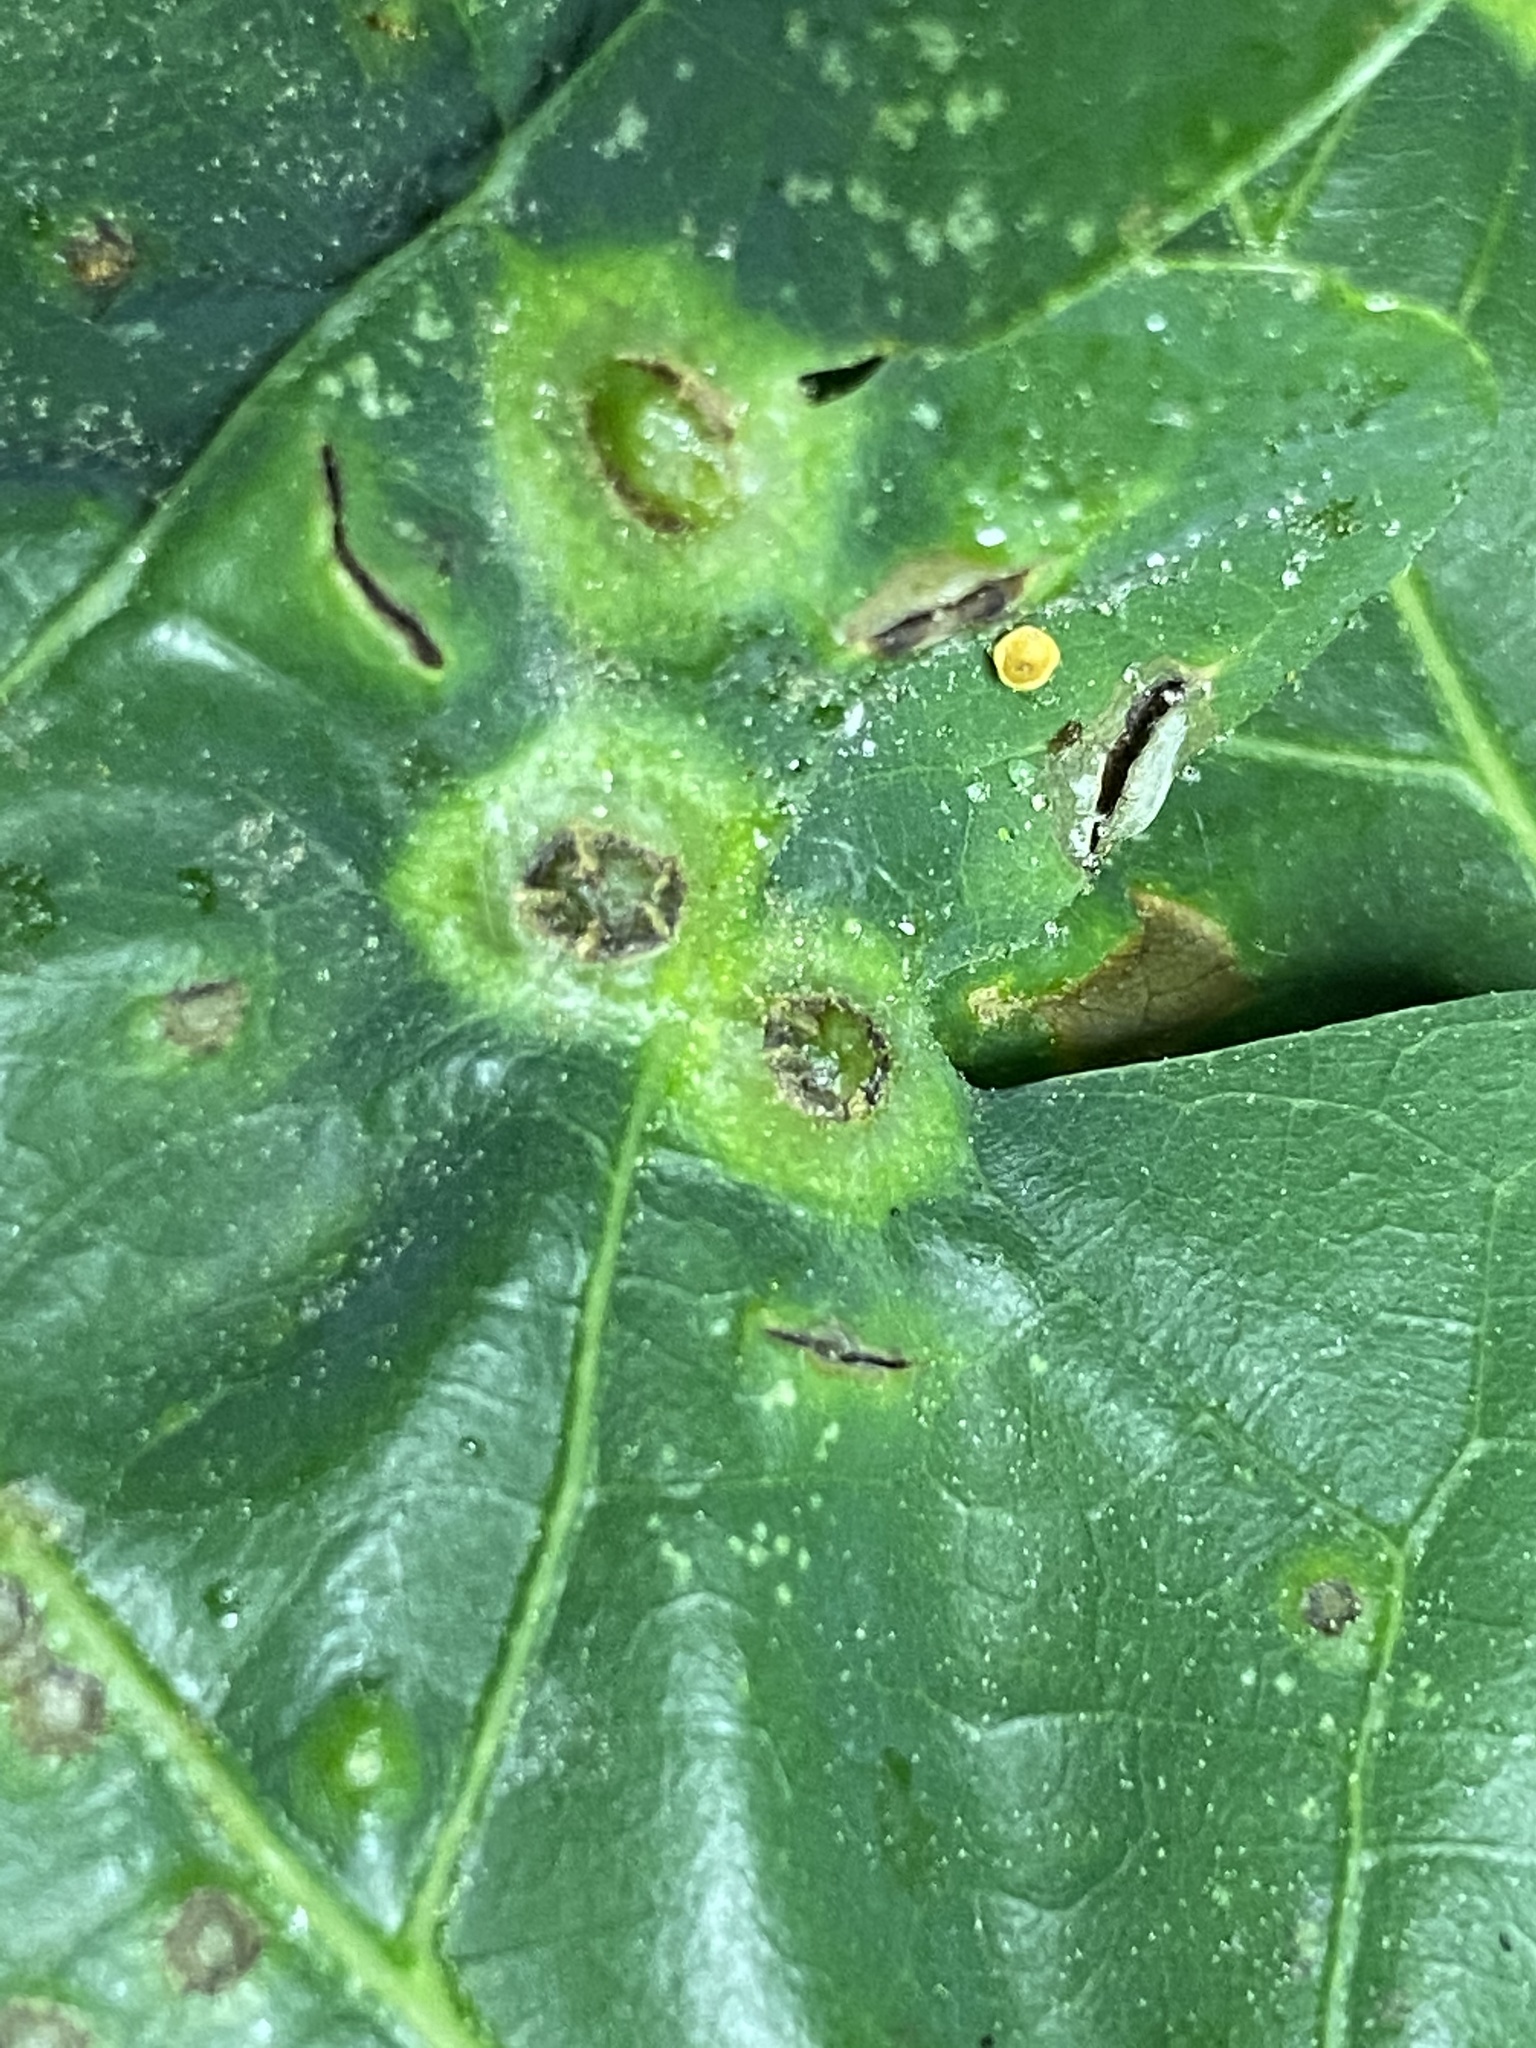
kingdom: Animalia
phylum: Arthropoda
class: Insecta
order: Hymenoptera
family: Cynipidae
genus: Callirhytis
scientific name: Callirhytis
